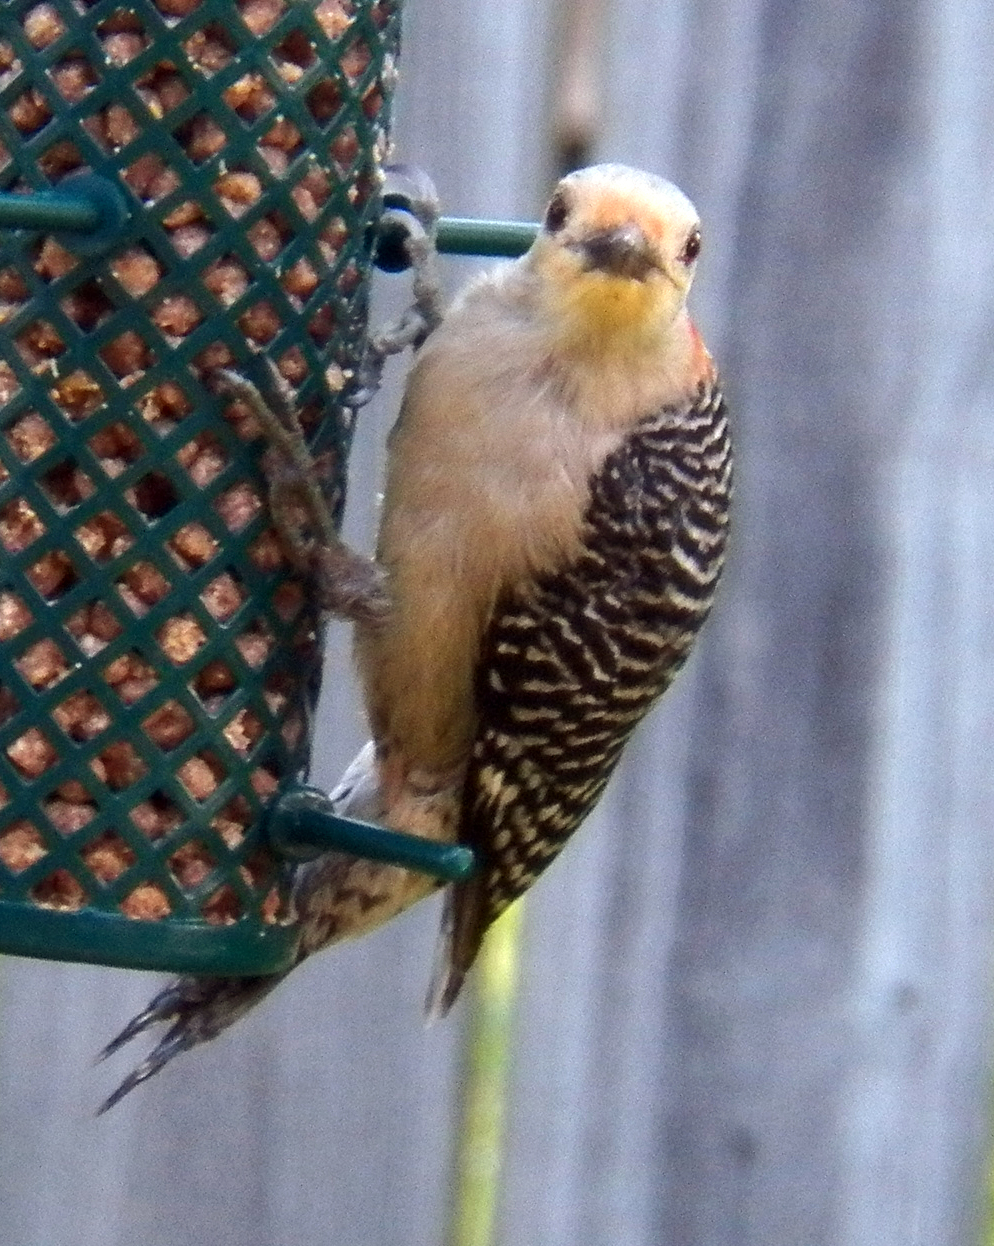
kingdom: Animalia
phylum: Chordata
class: Aves
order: Piciformes
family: Picidae
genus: Melanerpes
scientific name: Melanerpes carolinus
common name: Red-bellied woodpecker
